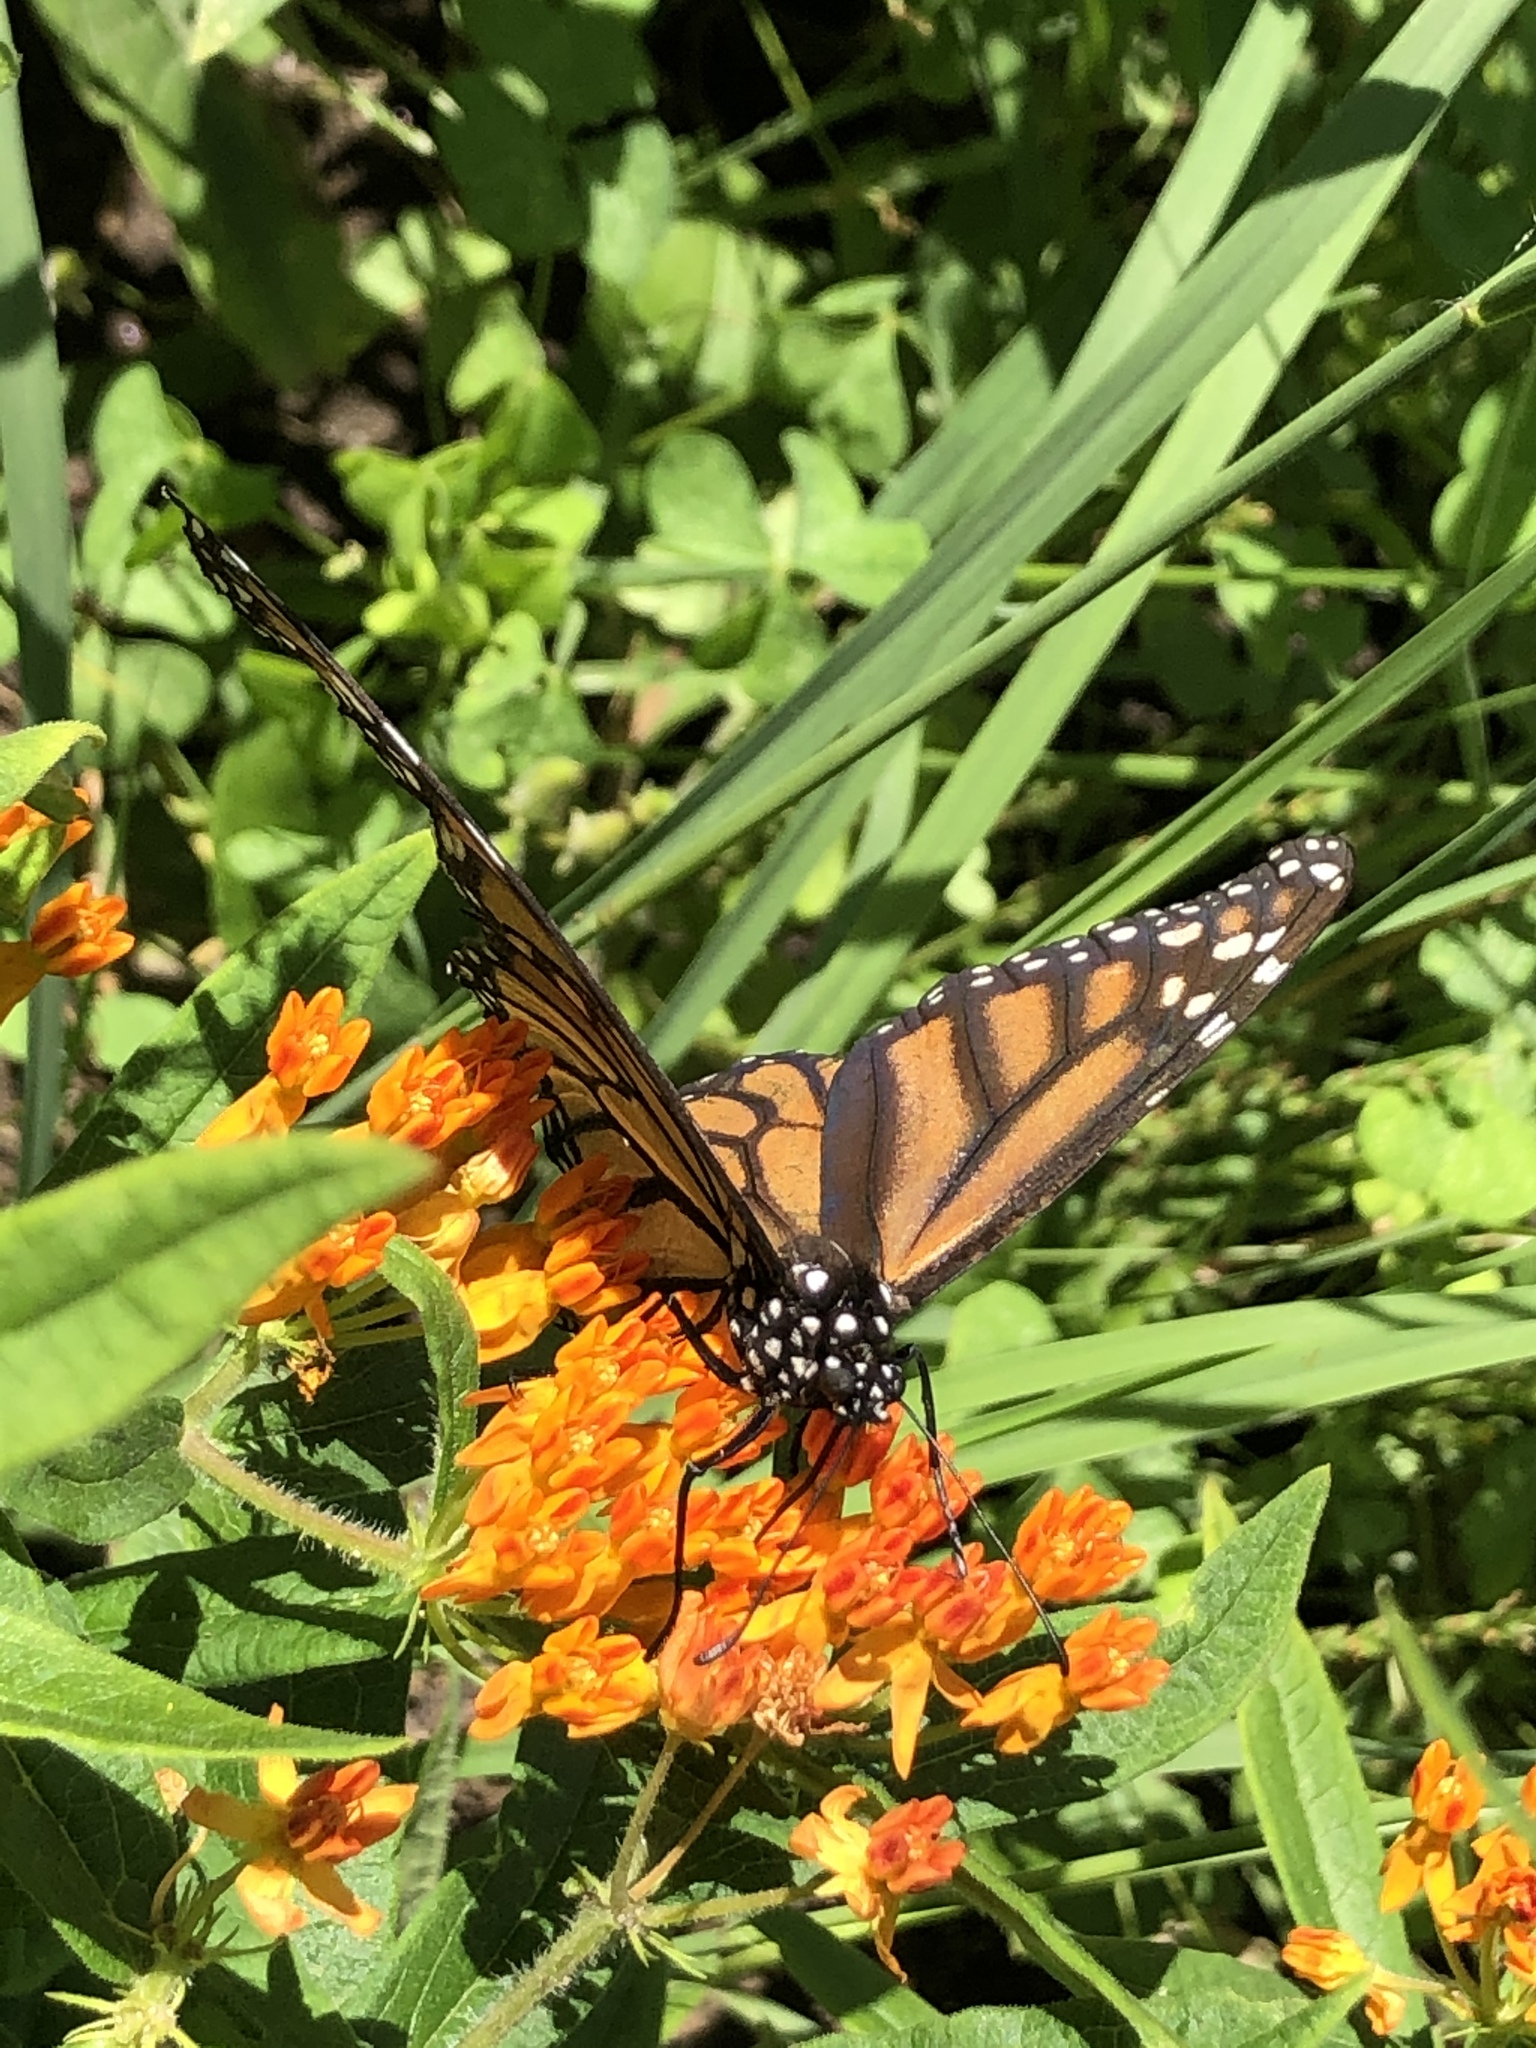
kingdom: Animalia
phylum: Arthropoda
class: Insecta
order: Lepidoptera
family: Nymphalidae
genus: Danaus
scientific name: Danaus plexippus
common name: Monarch
